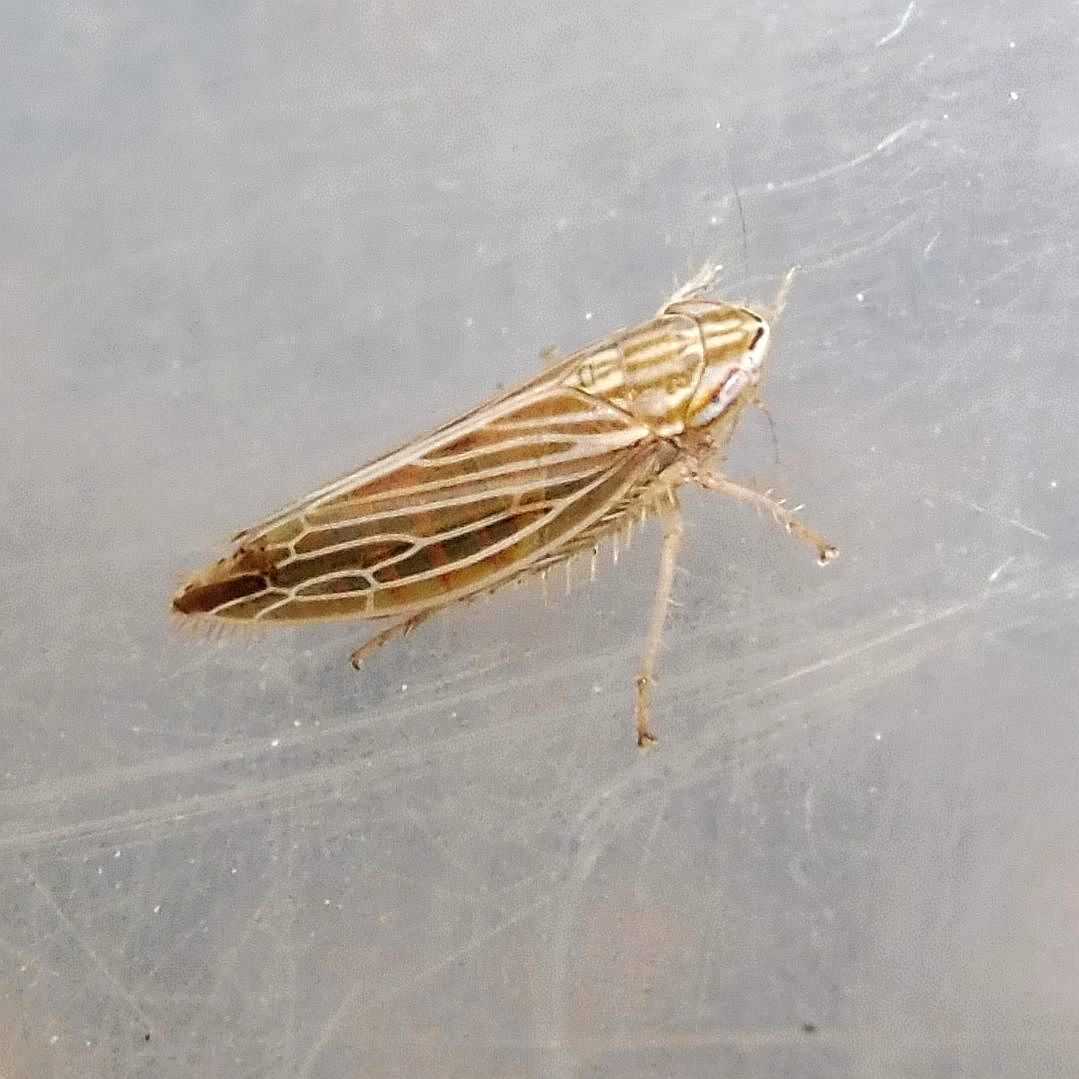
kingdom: Animalia
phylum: Arthropoda
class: Insecta
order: Hemiptera
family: Cicadellidae
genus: Mocydia
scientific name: Mocydia crocea
